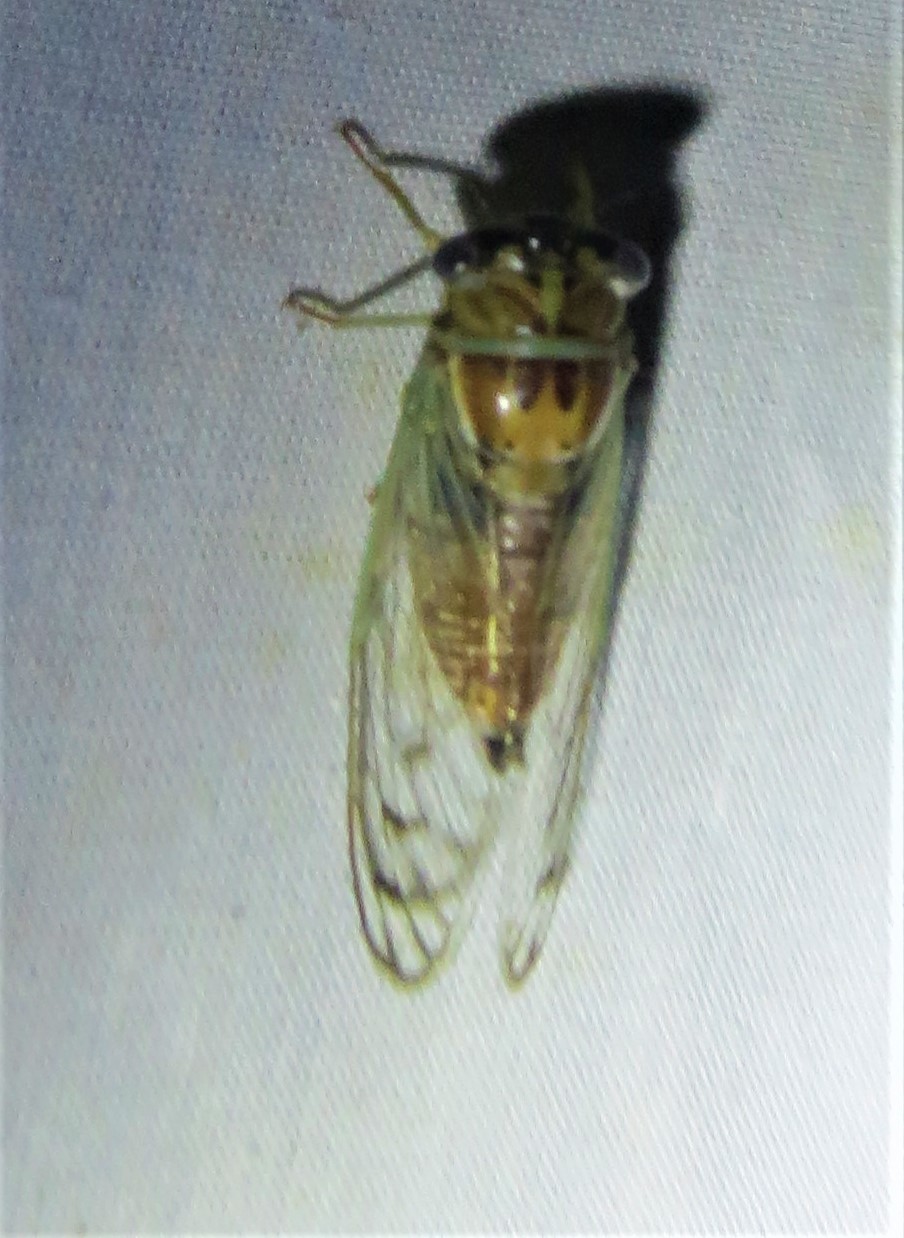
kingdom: Animalia
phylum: Arthropoda
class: Insecta
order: Hemiptera
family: Cicadidae
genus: Diceroprocta
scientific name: Diceroprocta delicata
